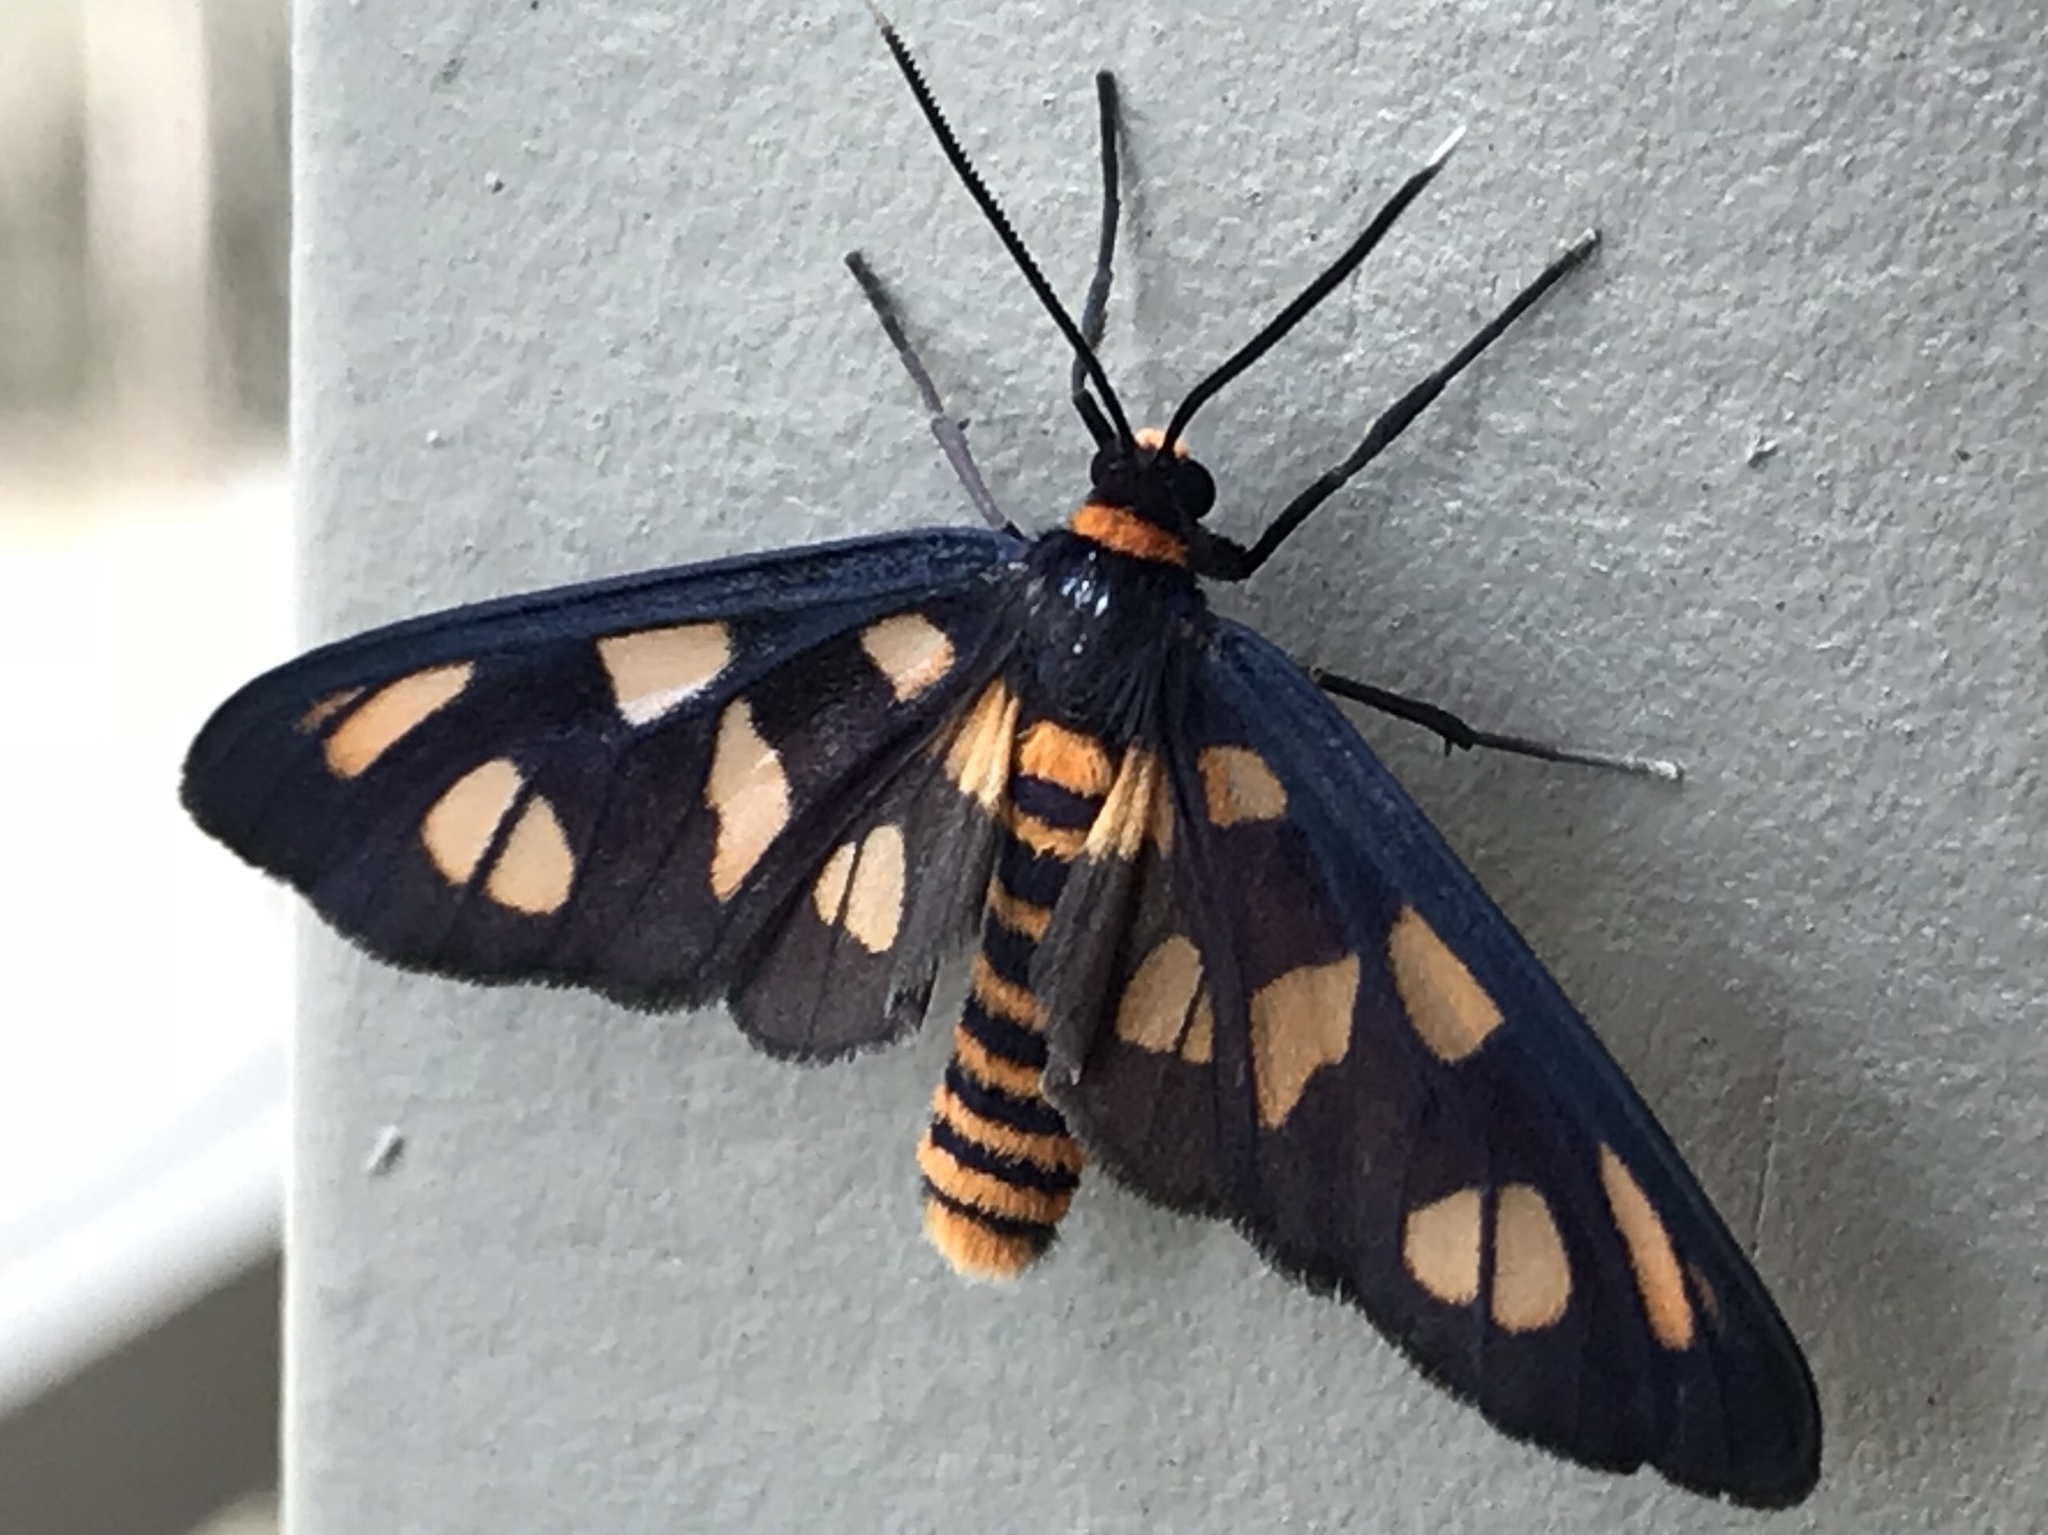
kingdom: Animalia
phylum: Arthropoda
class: Insecta
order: Lepidoptera
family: Erebidae
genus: Amata
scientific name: Amata nigriceps
